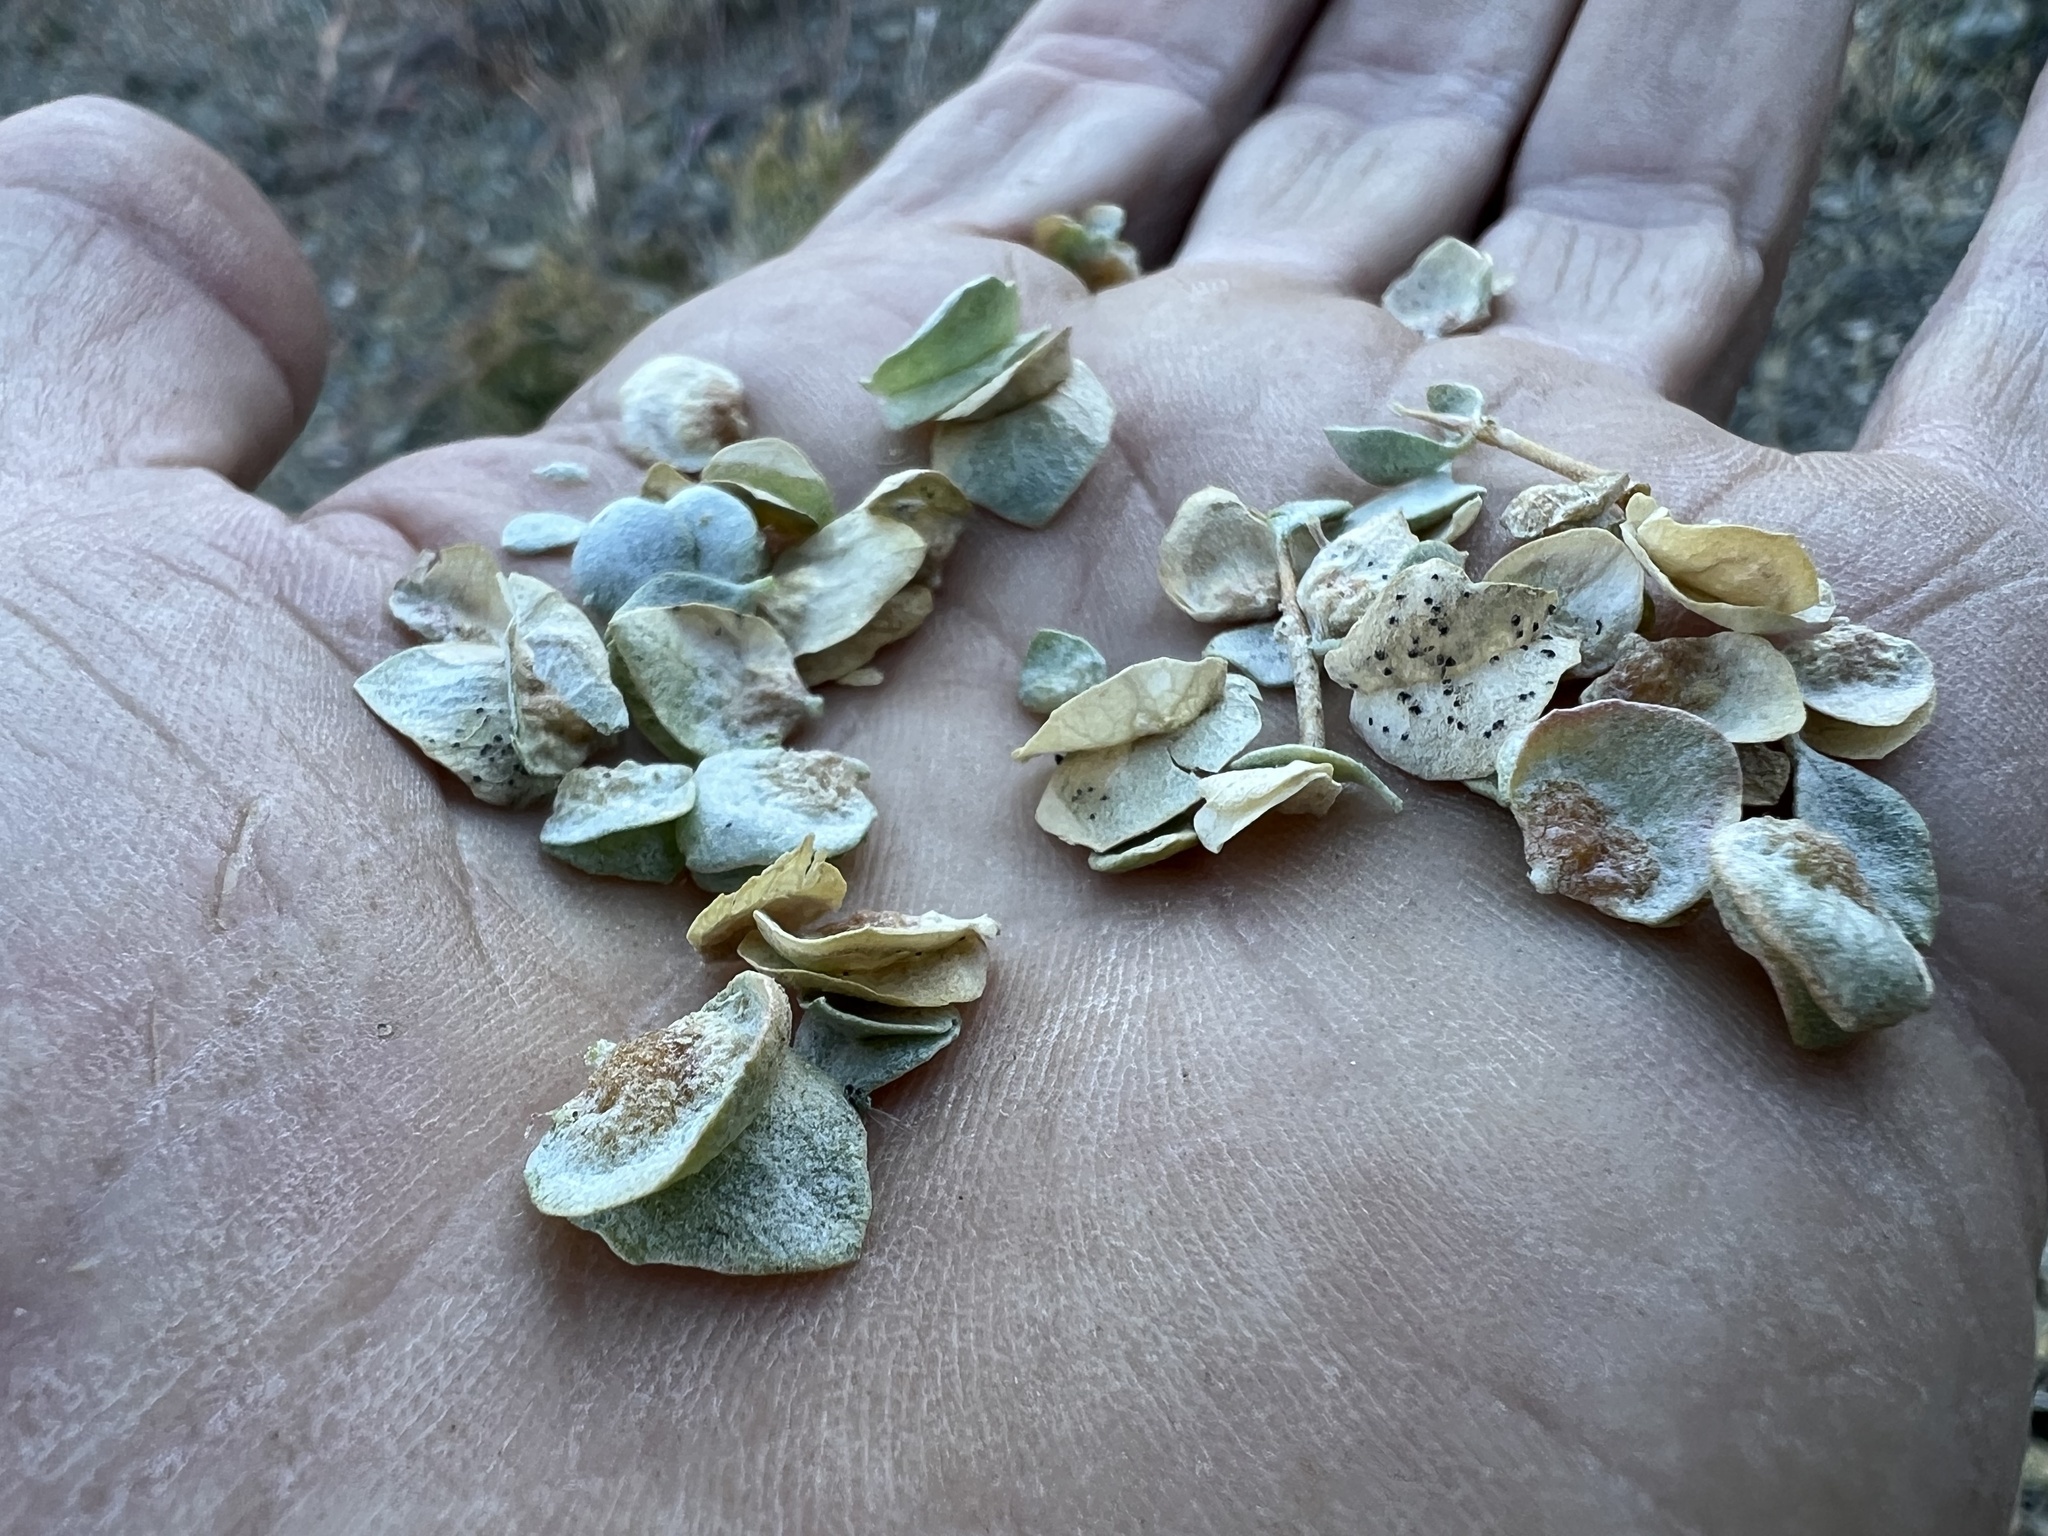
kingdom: Plantae
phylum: Tracheophyta
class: Magnoliopsida
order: Caryophyllales
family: Amaranthaceae
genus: Atriplex
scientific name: Atriplex confertifolia
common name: Shadscale
